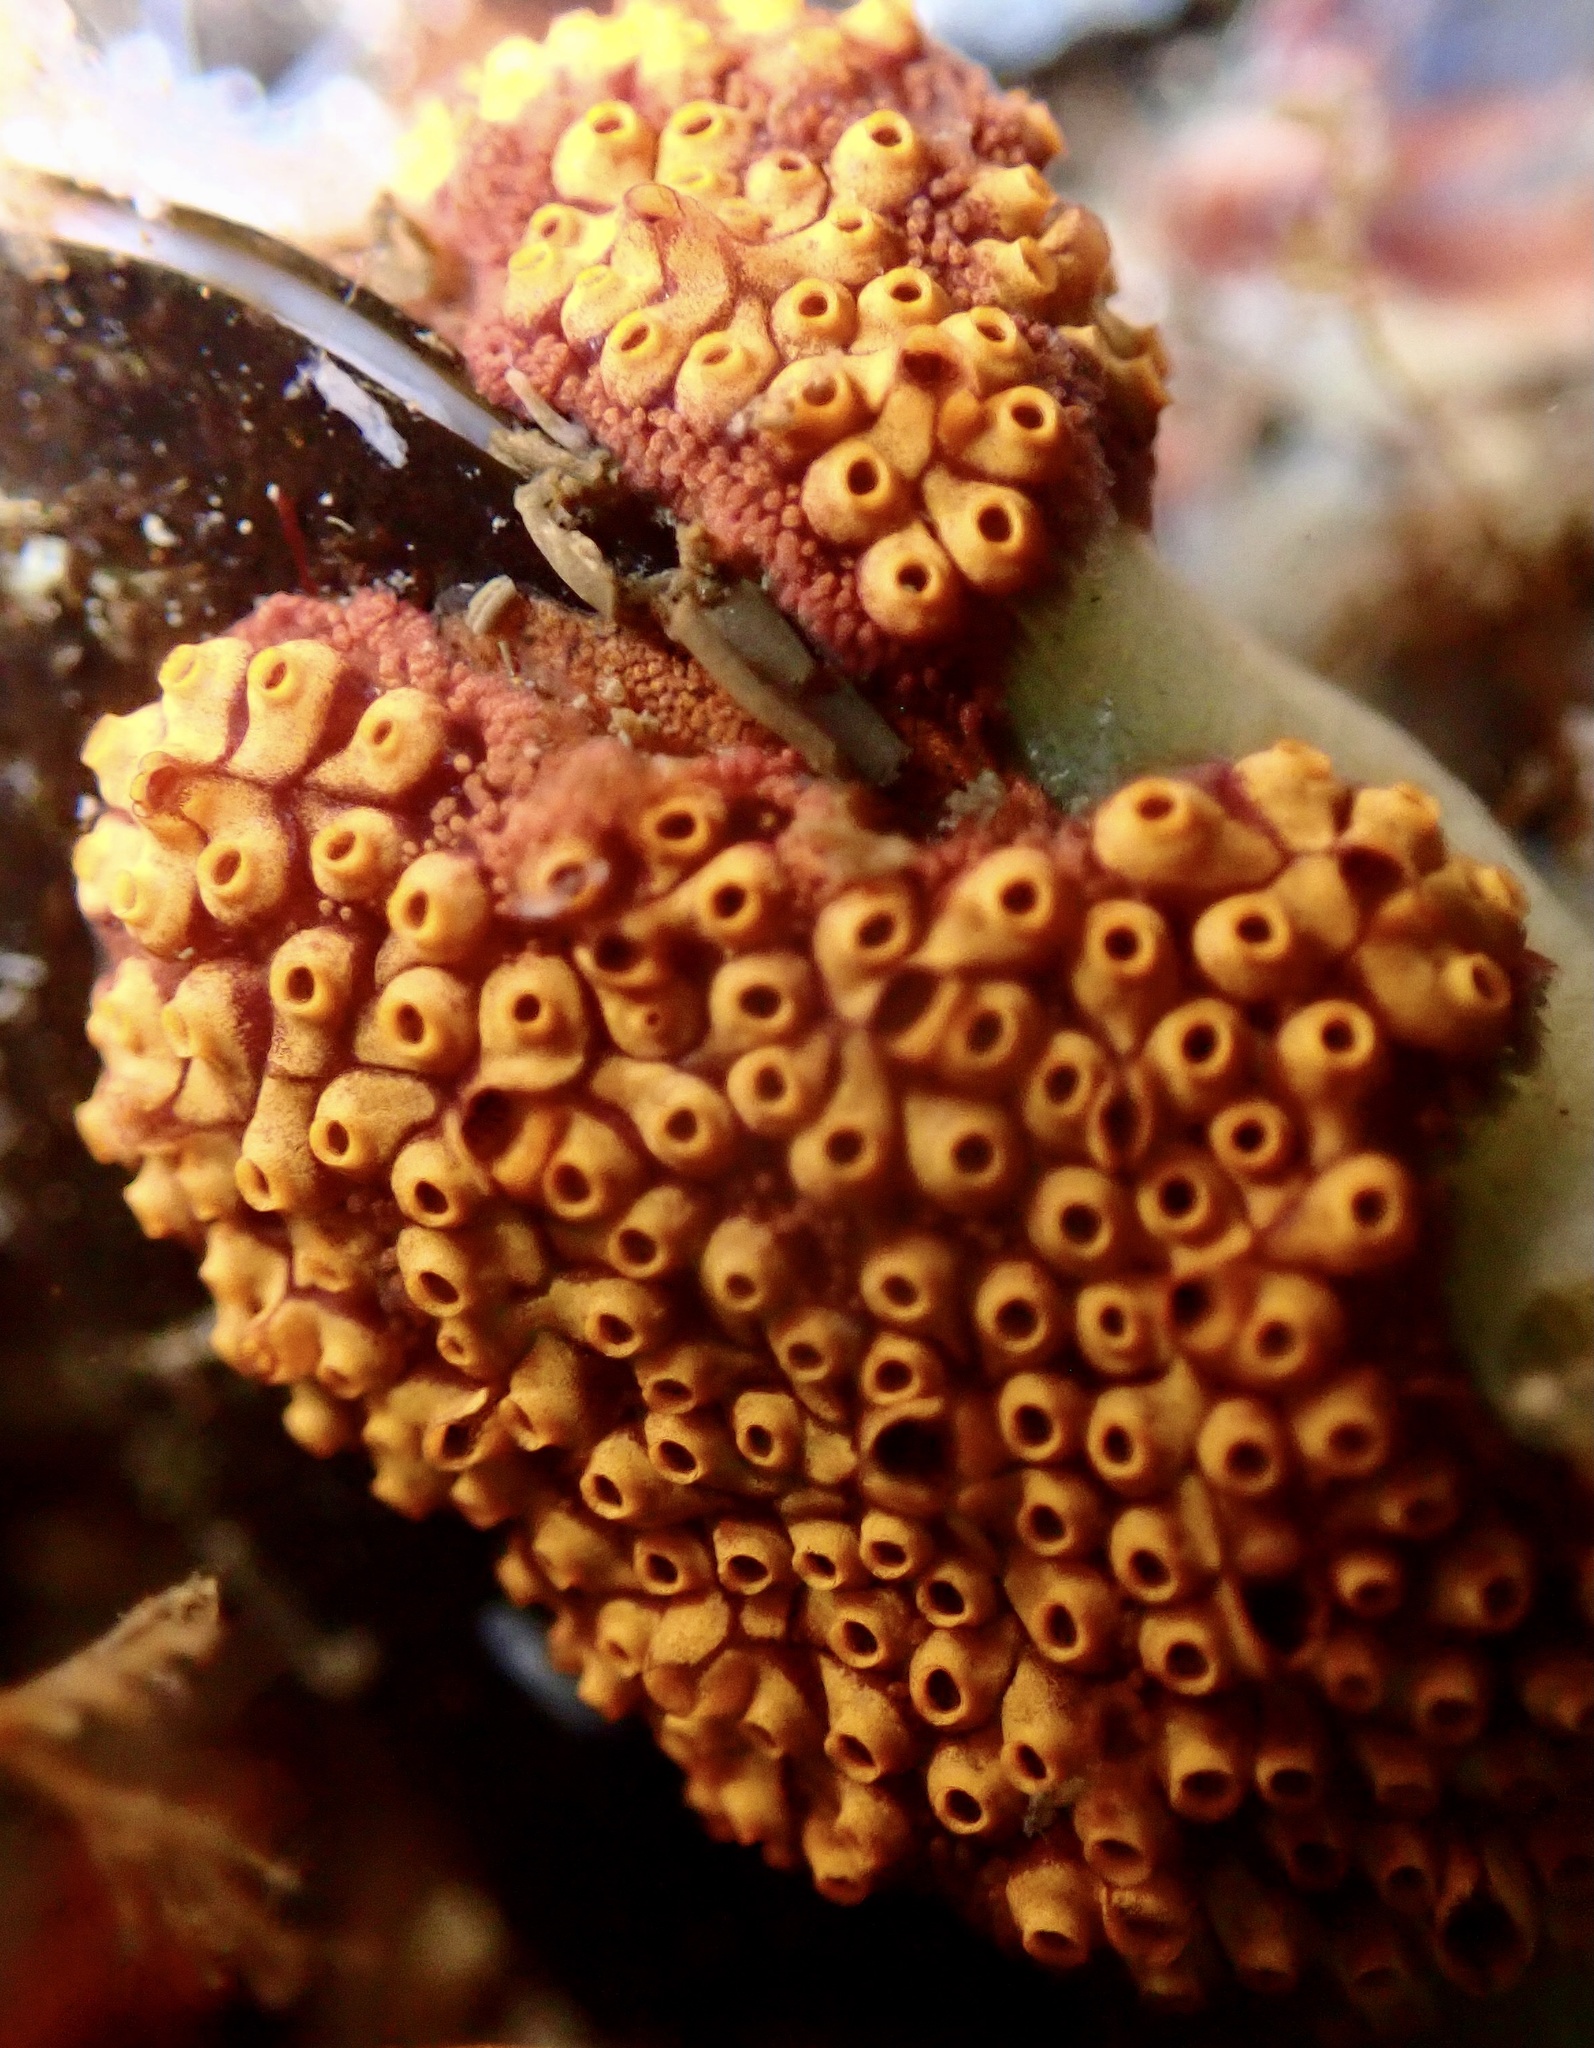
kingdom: Animalia
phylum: Chordata
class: Ascidiacea
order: Stolidobranchia
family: Styelidae
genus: Botrylloides
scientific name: Botrylloides diegensis
